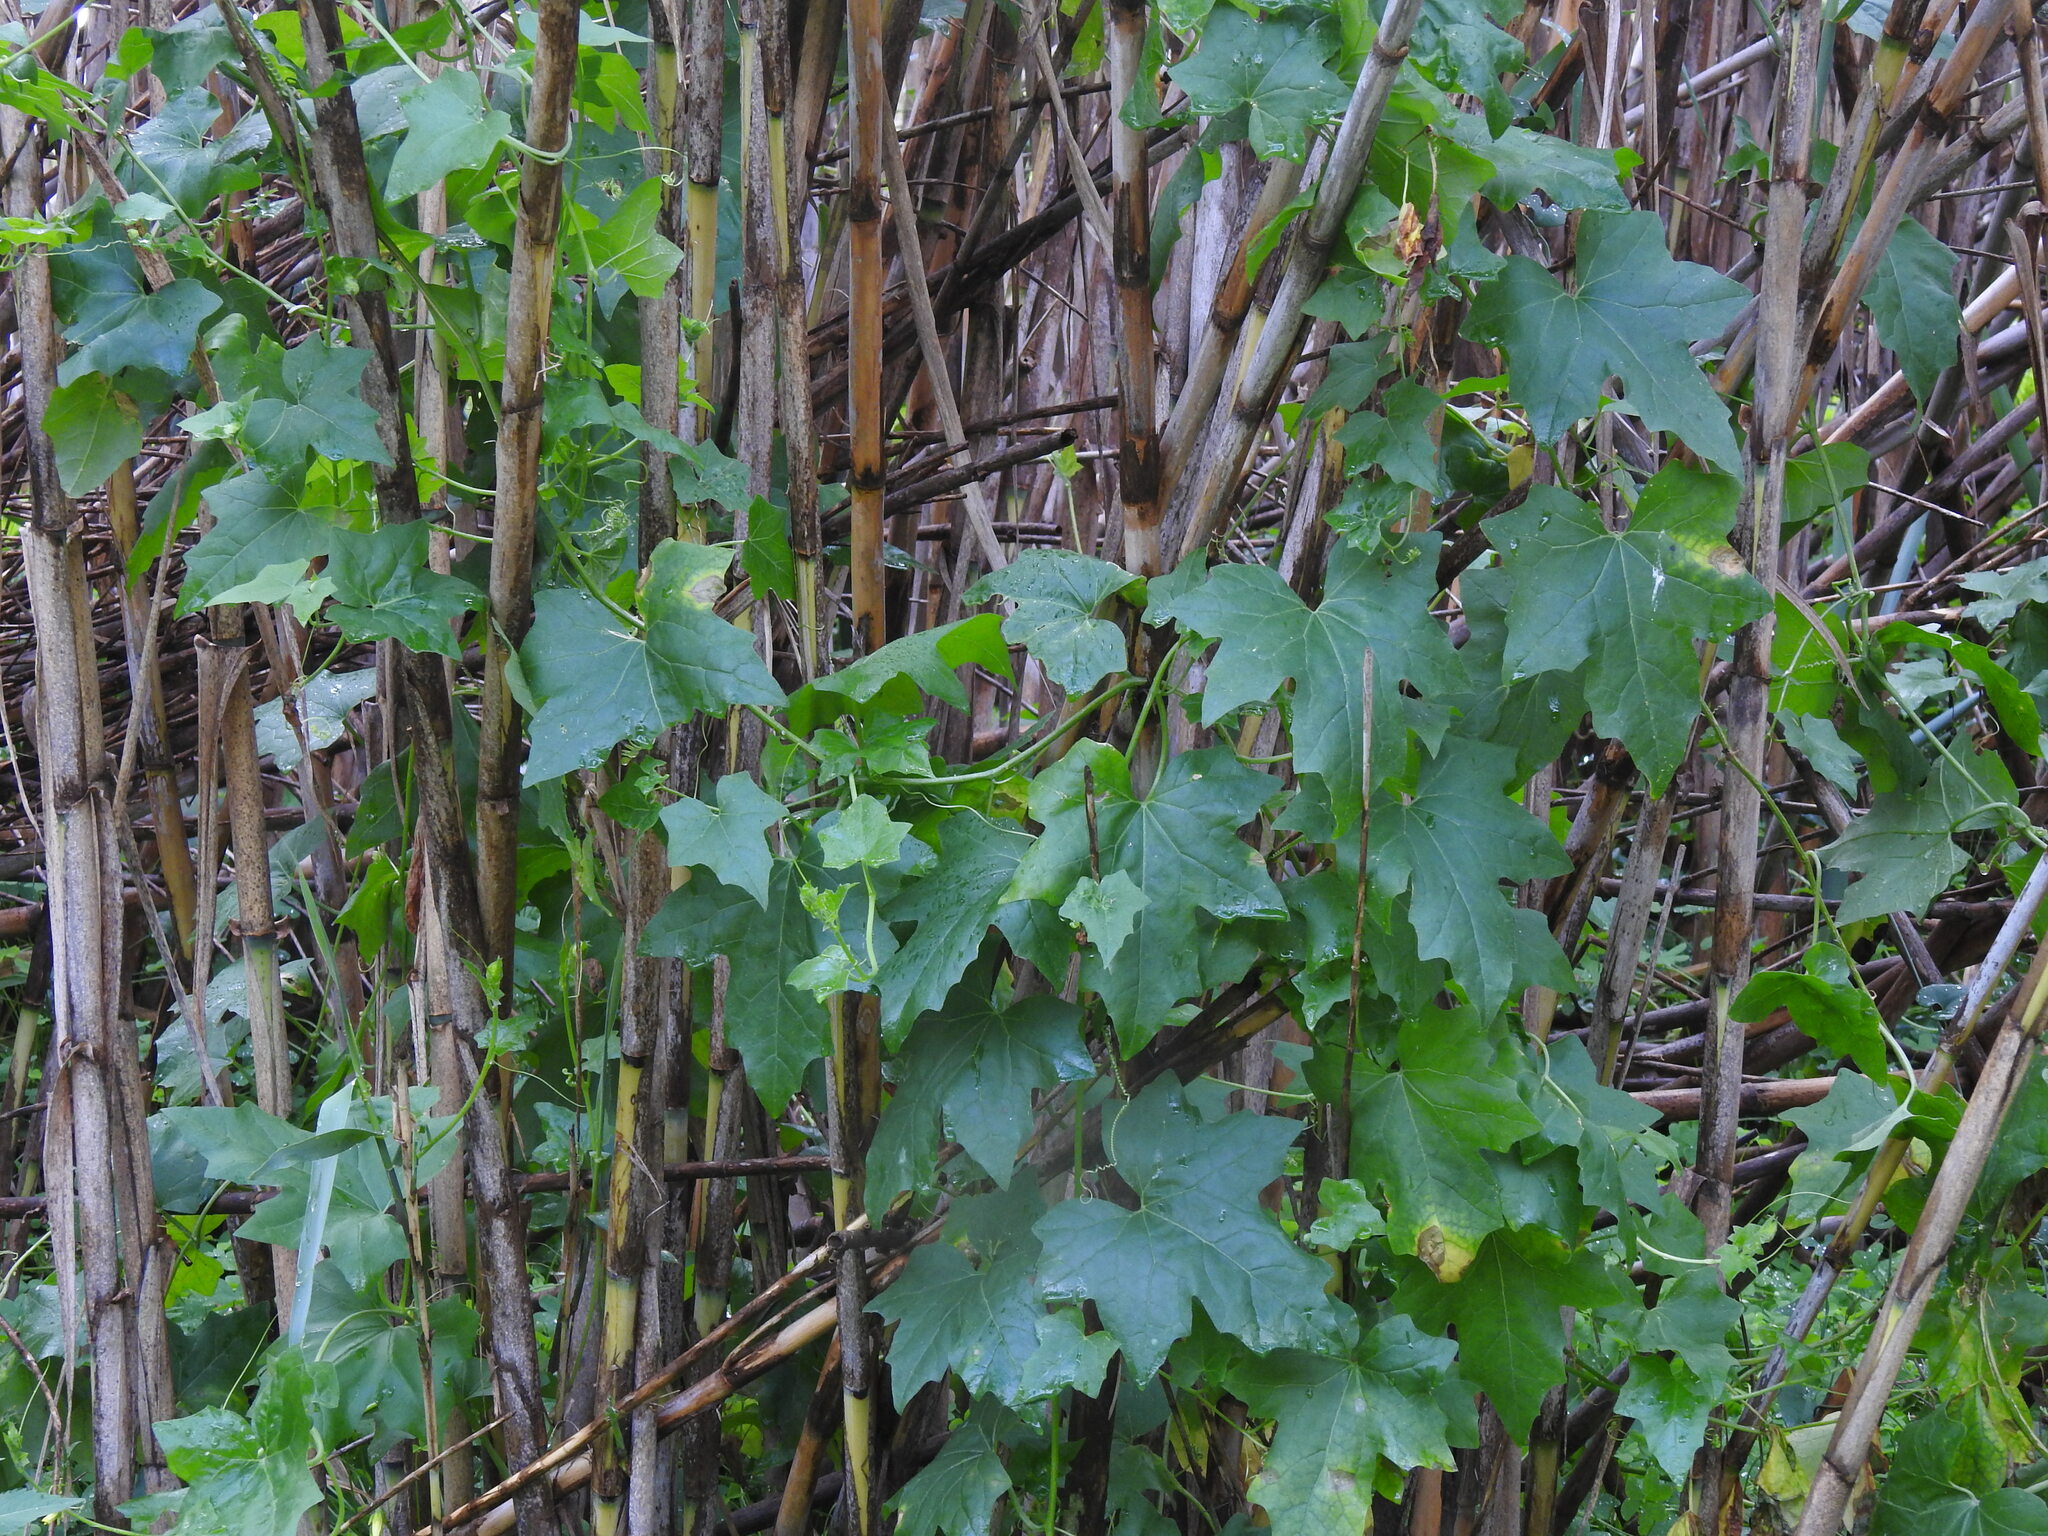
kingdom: Plantae
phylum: Tracheophyta
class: Magnoliopsida
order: Cucurbitales
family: Cucurbitaceae
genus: Bryonia
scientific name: Bryonia cretica
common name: Cretan bryony
